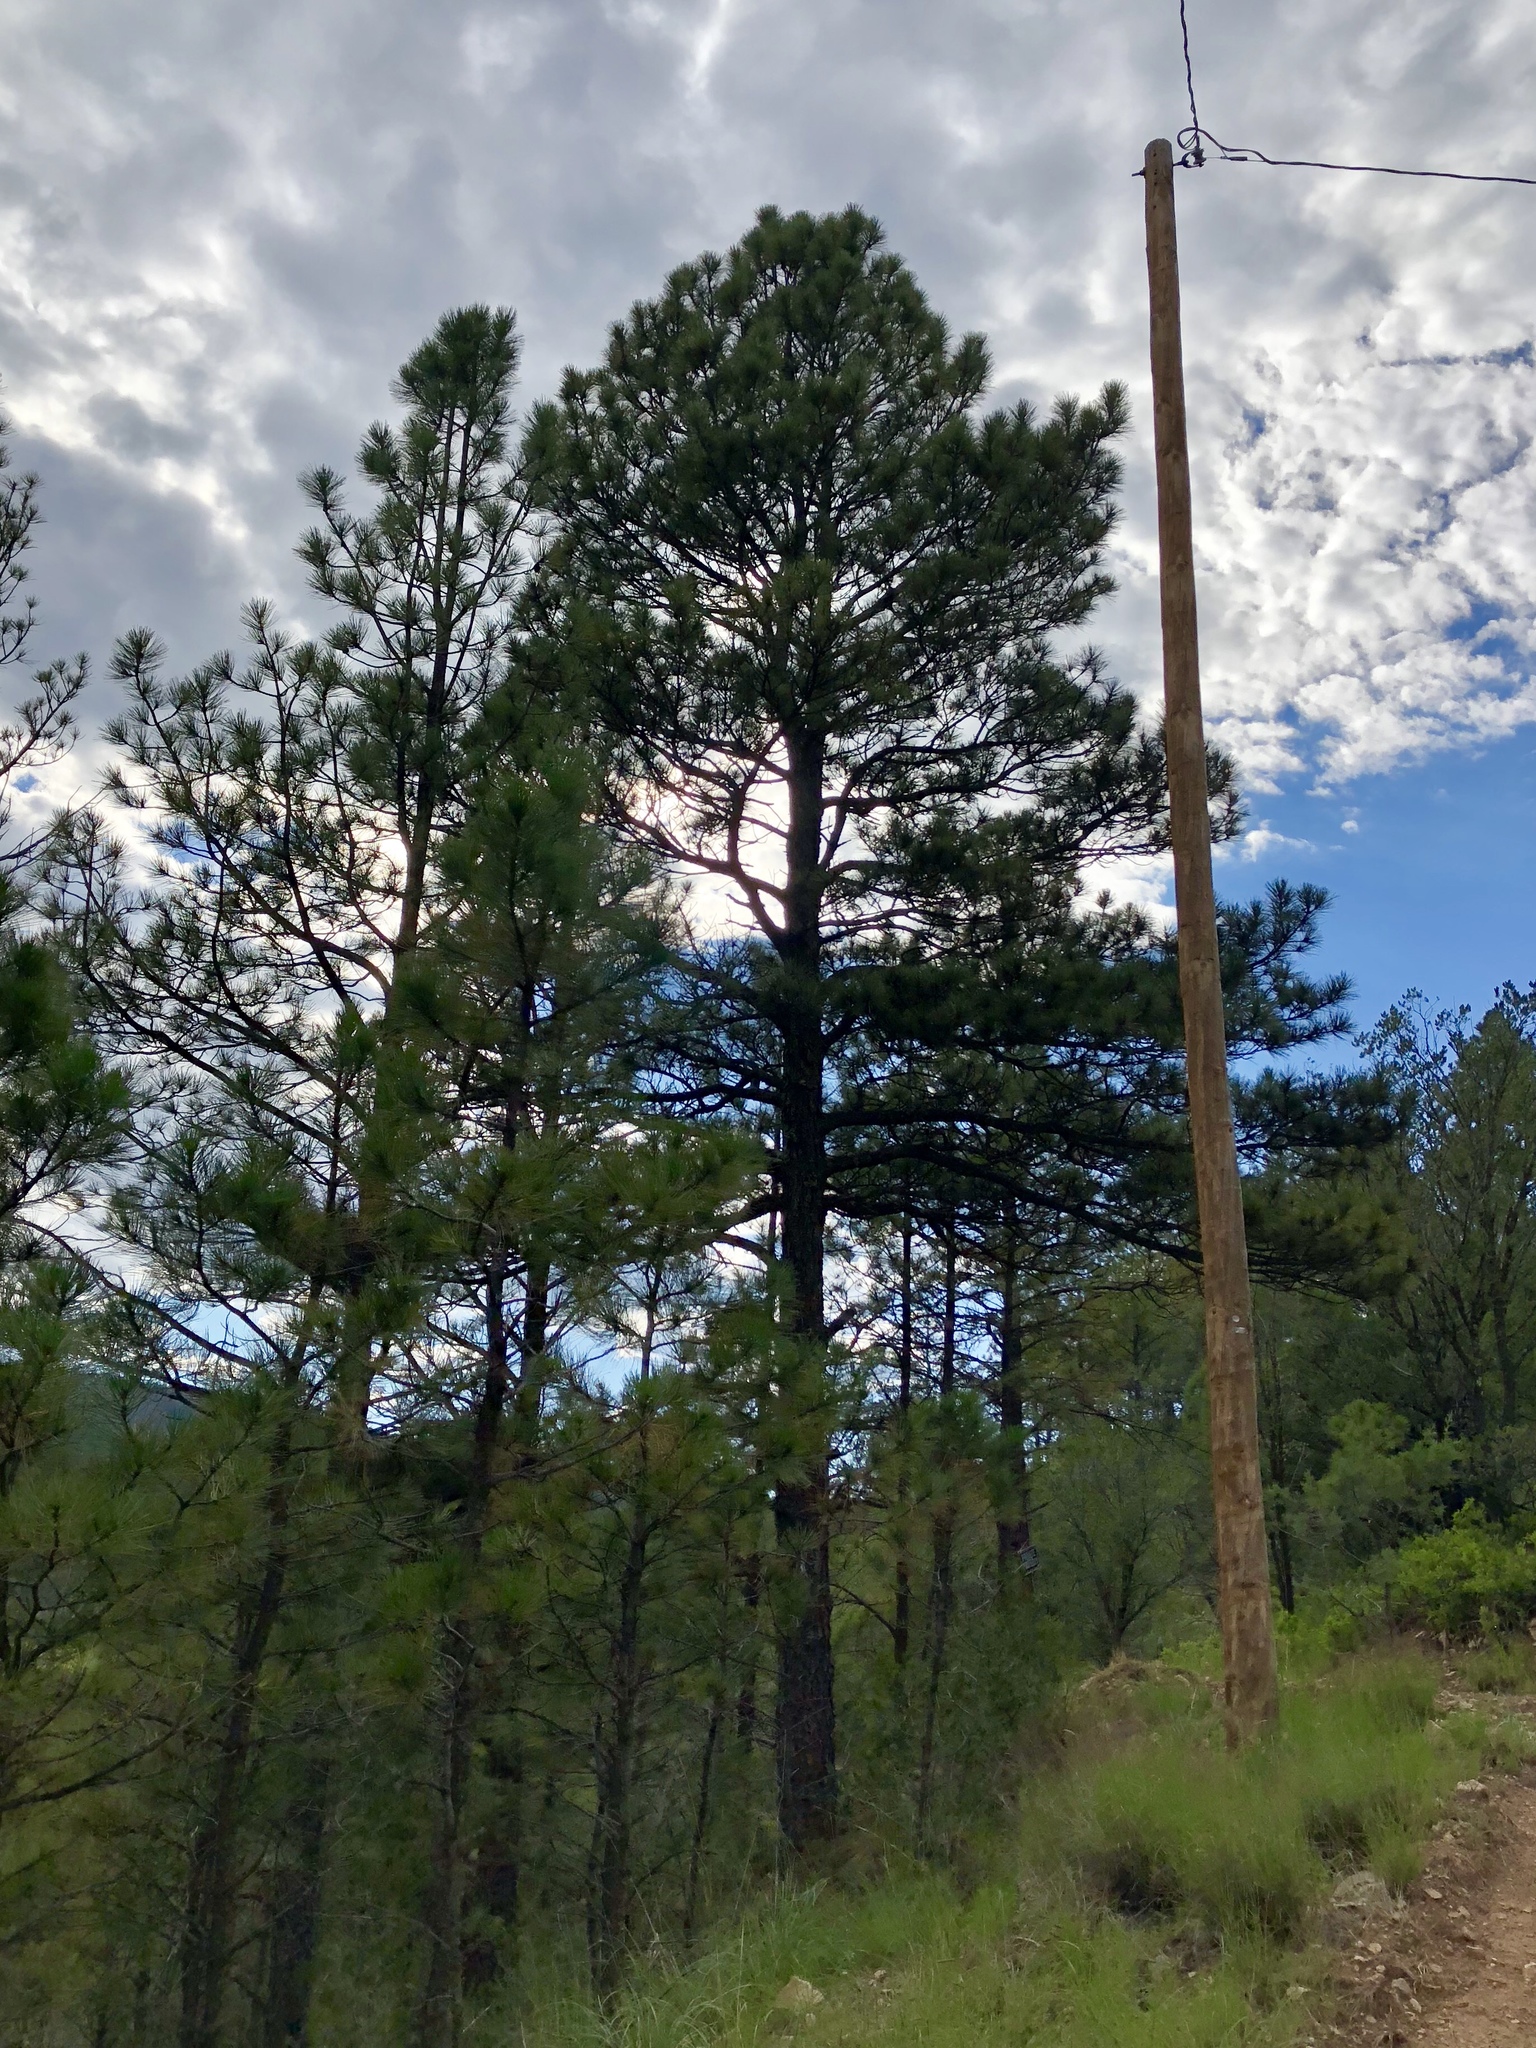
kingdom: Plantae
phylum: Tracheophyta
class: Pinopsida
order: Pinales
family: Pinaceae
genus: Pinus
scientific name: Pinus ponderosa
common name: Western yellow-pine
